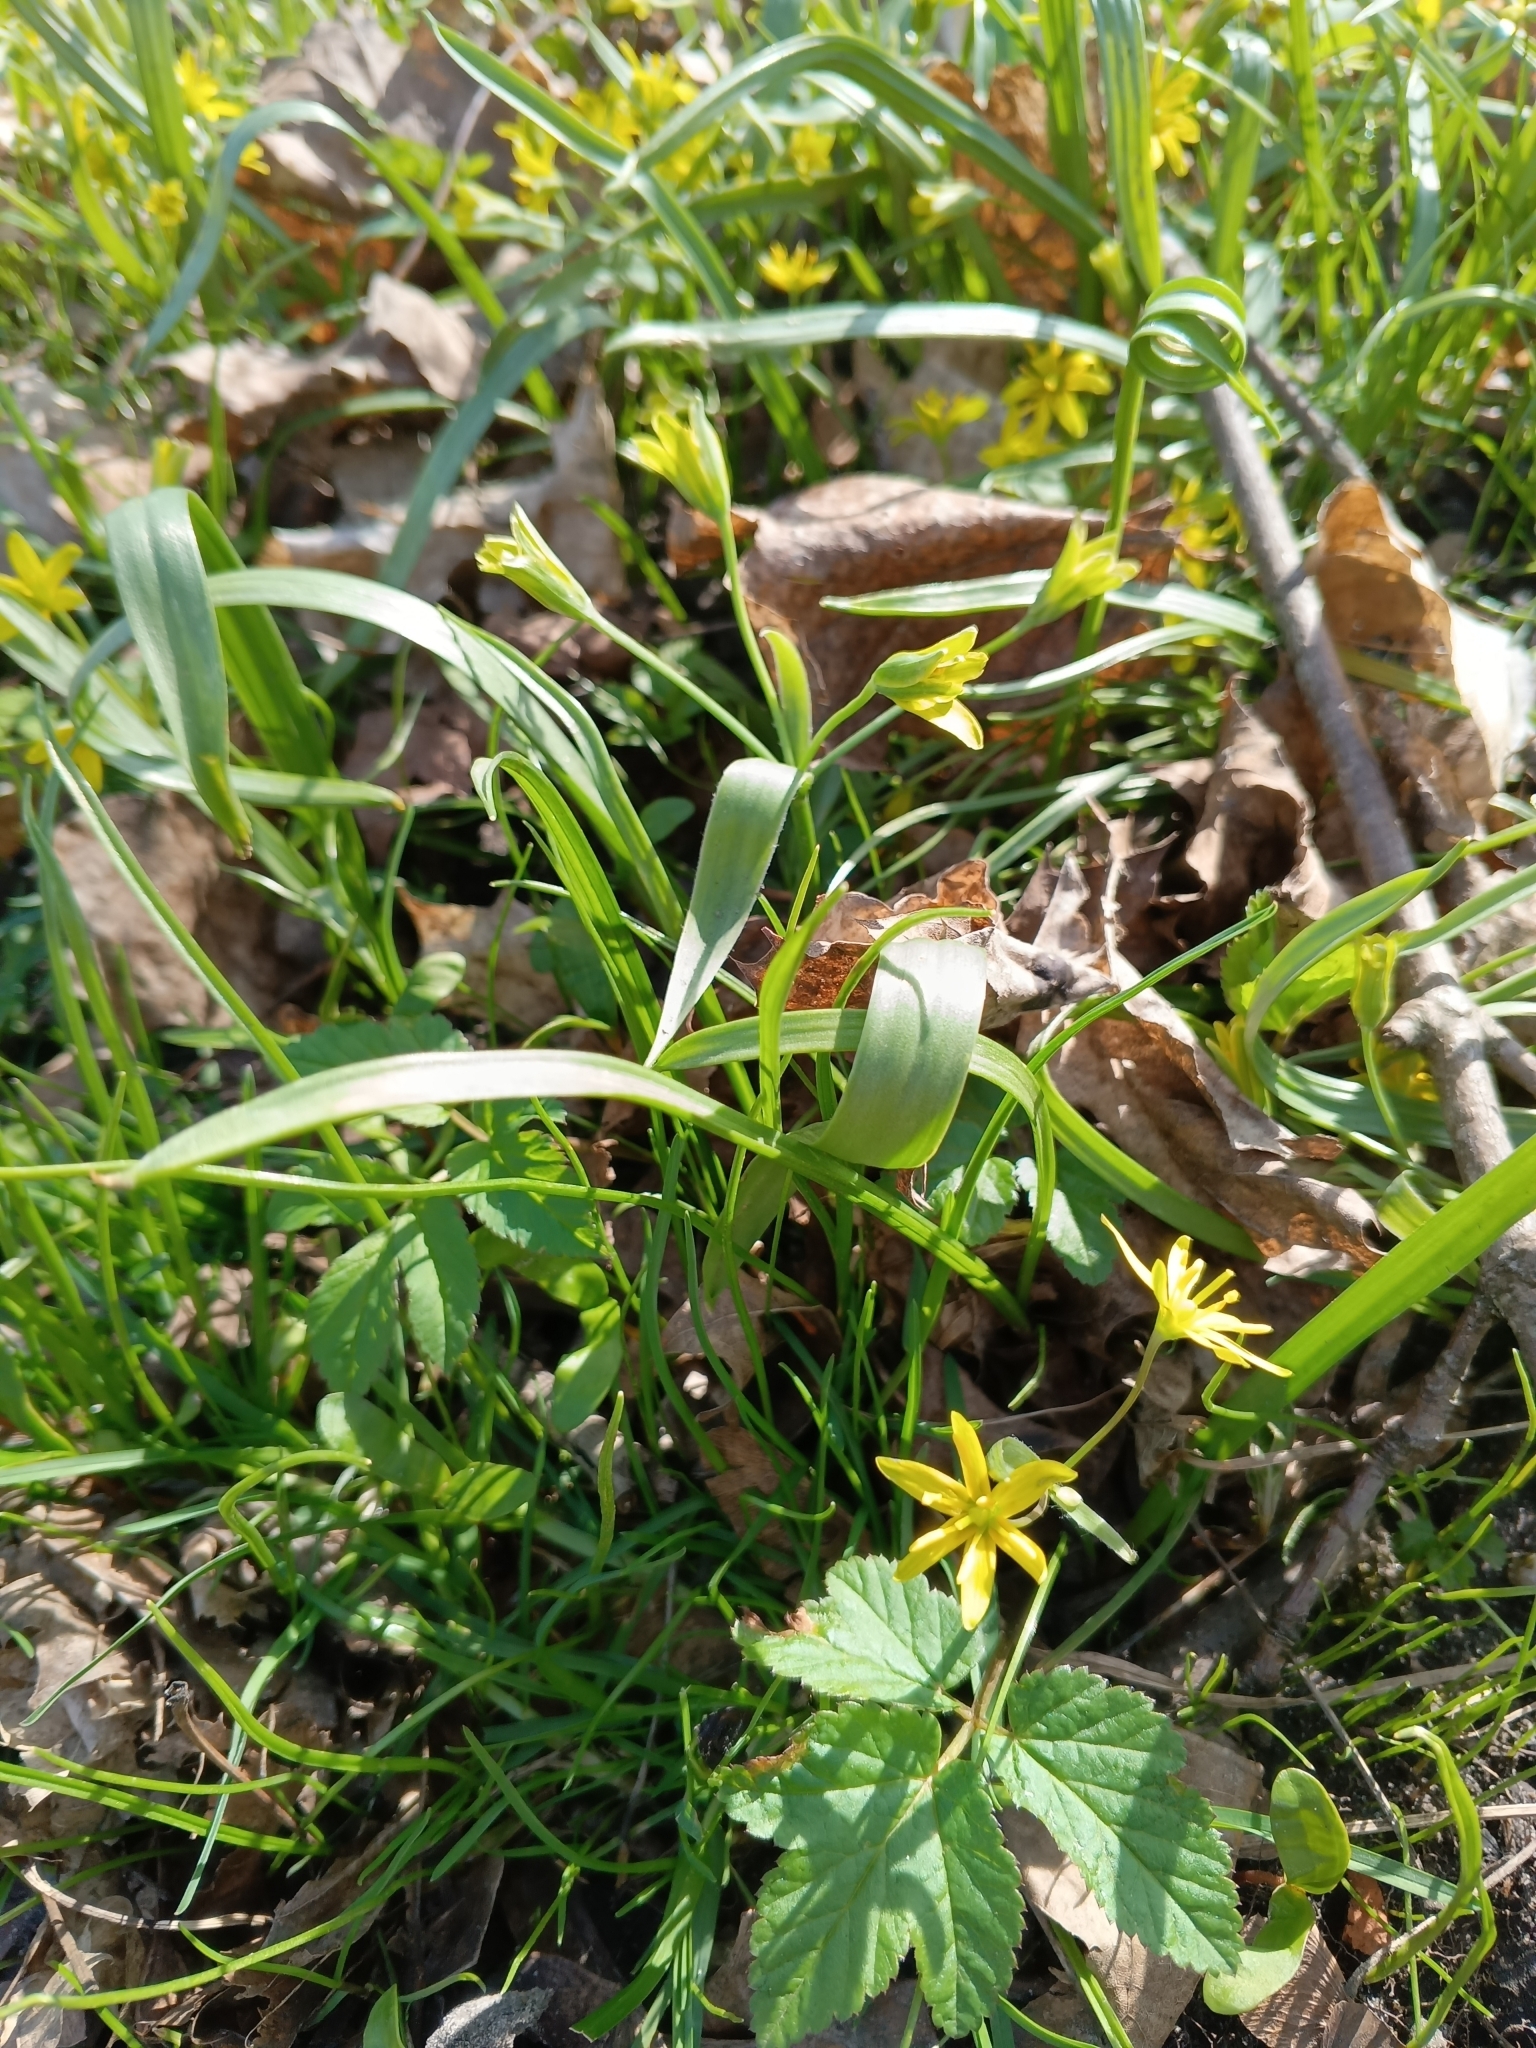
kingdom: Plantae
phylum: Tracheophyta
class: Liliopsida
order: Liliales
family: Liliaceae
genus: Gagea
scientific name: Gagea lutea
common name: Yellow star-of-bethlehem
